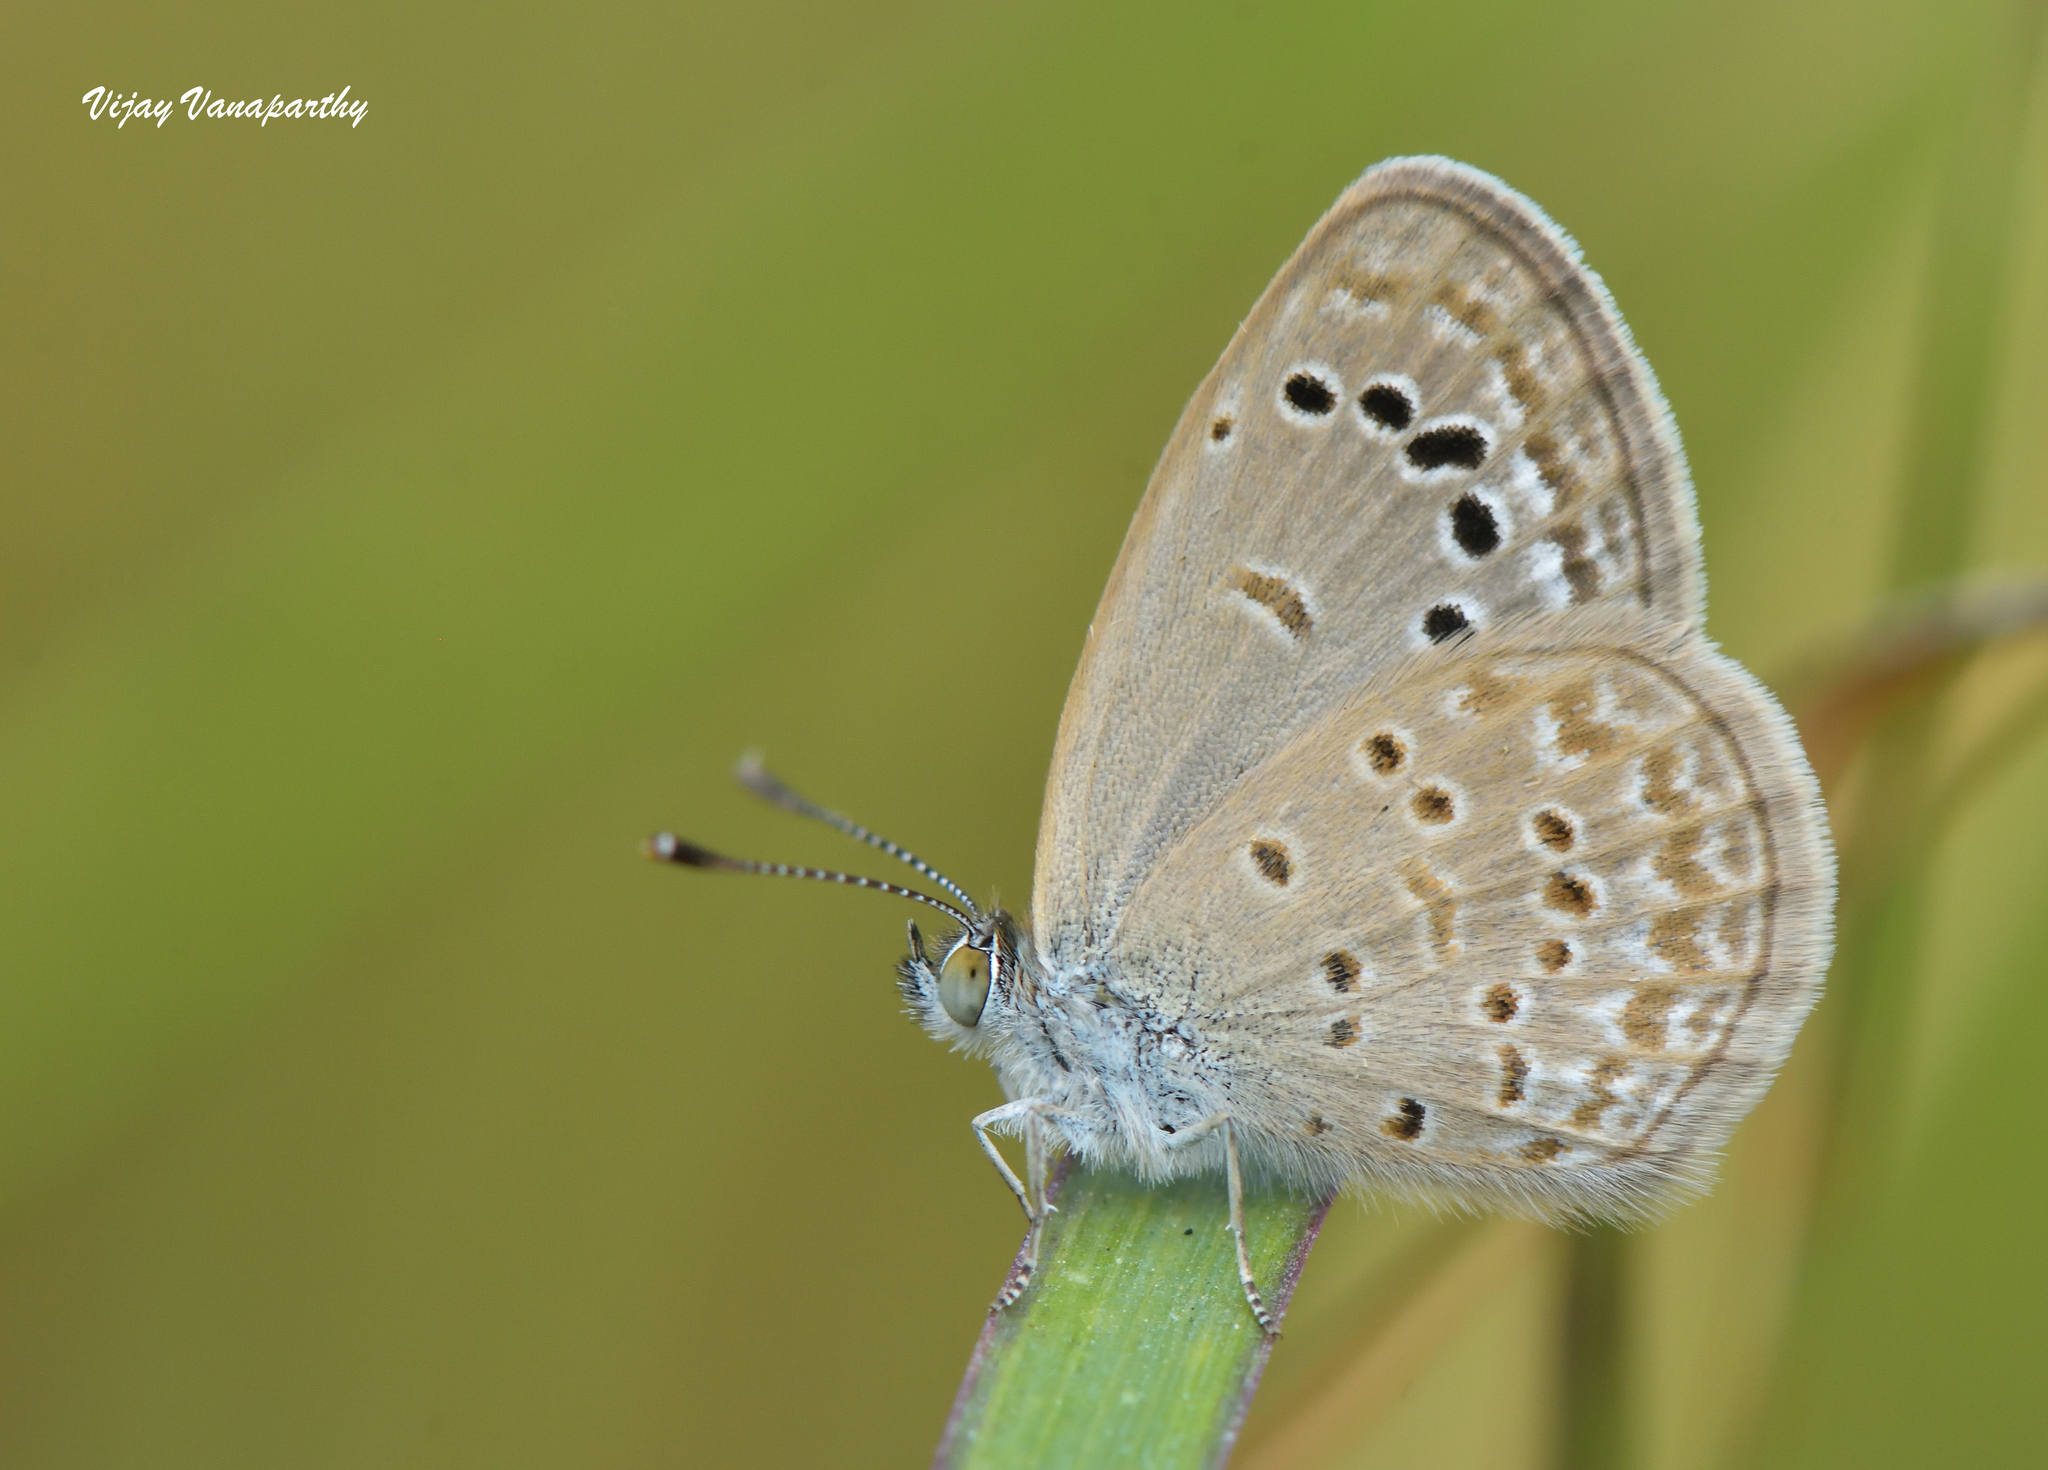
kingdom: Animalia
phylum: Arthropoda
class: Insecta
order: Lepidoptera
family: Lycaenidae
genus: Zizina
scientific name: Zizina otis
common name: Lesser grass blue
